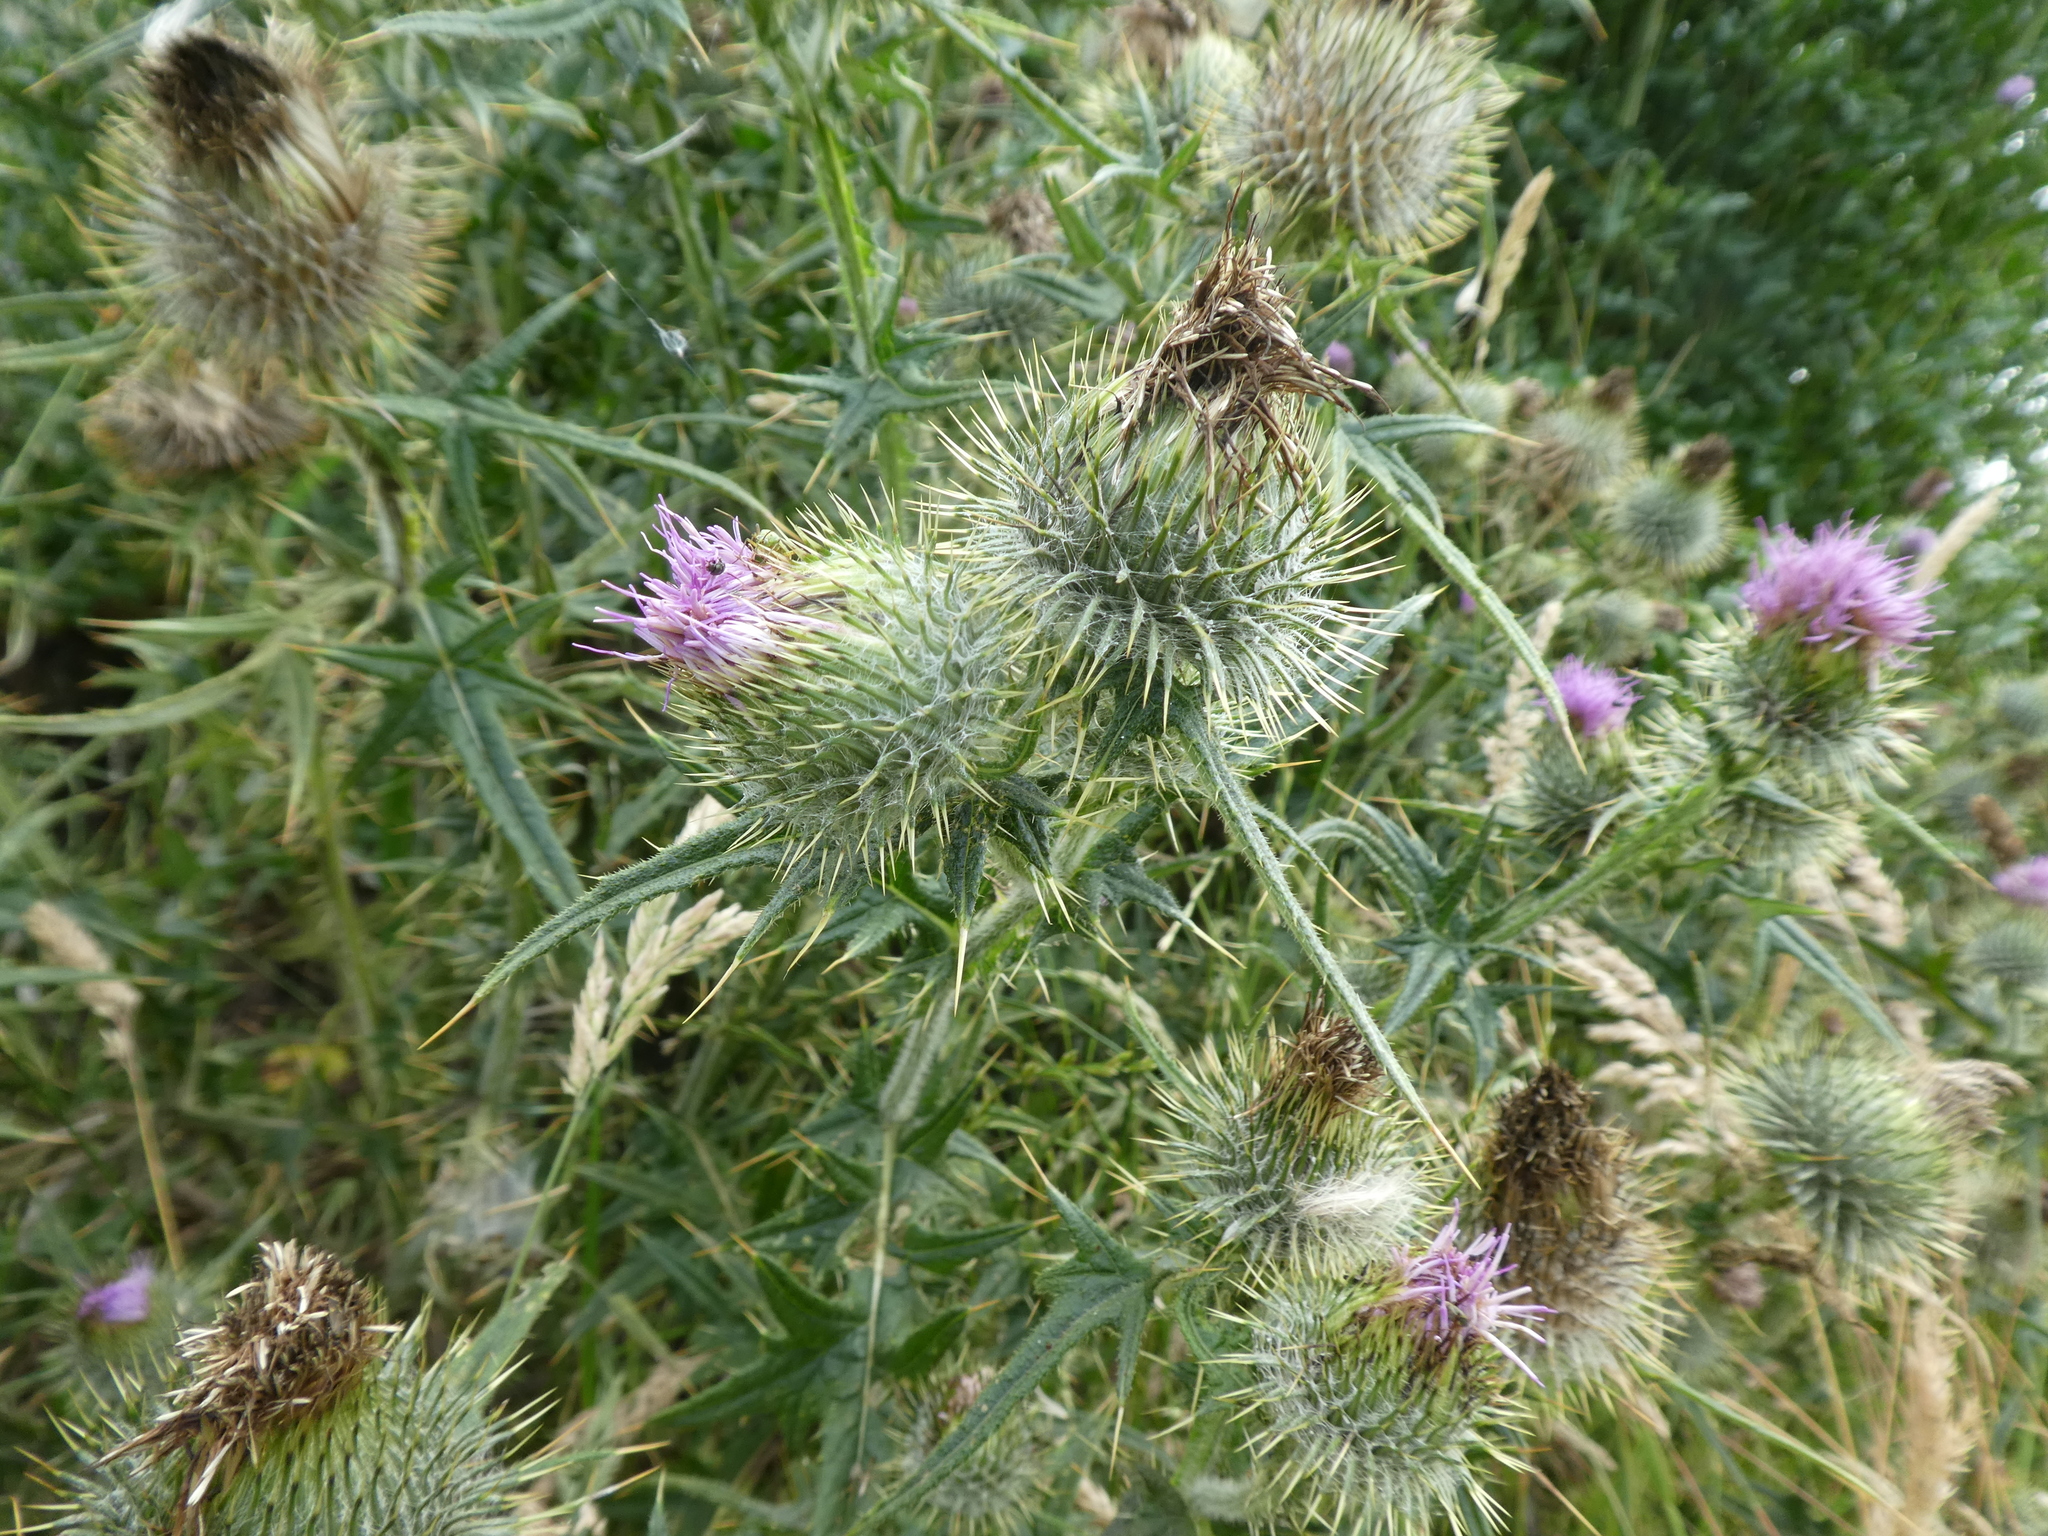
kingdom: Plantae
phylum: Tracheophyta
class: Magnoliopsida
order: Asterales
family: Asteraceae
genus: Cirsium
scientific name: Cirsium vulgare
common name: Bull thistle
